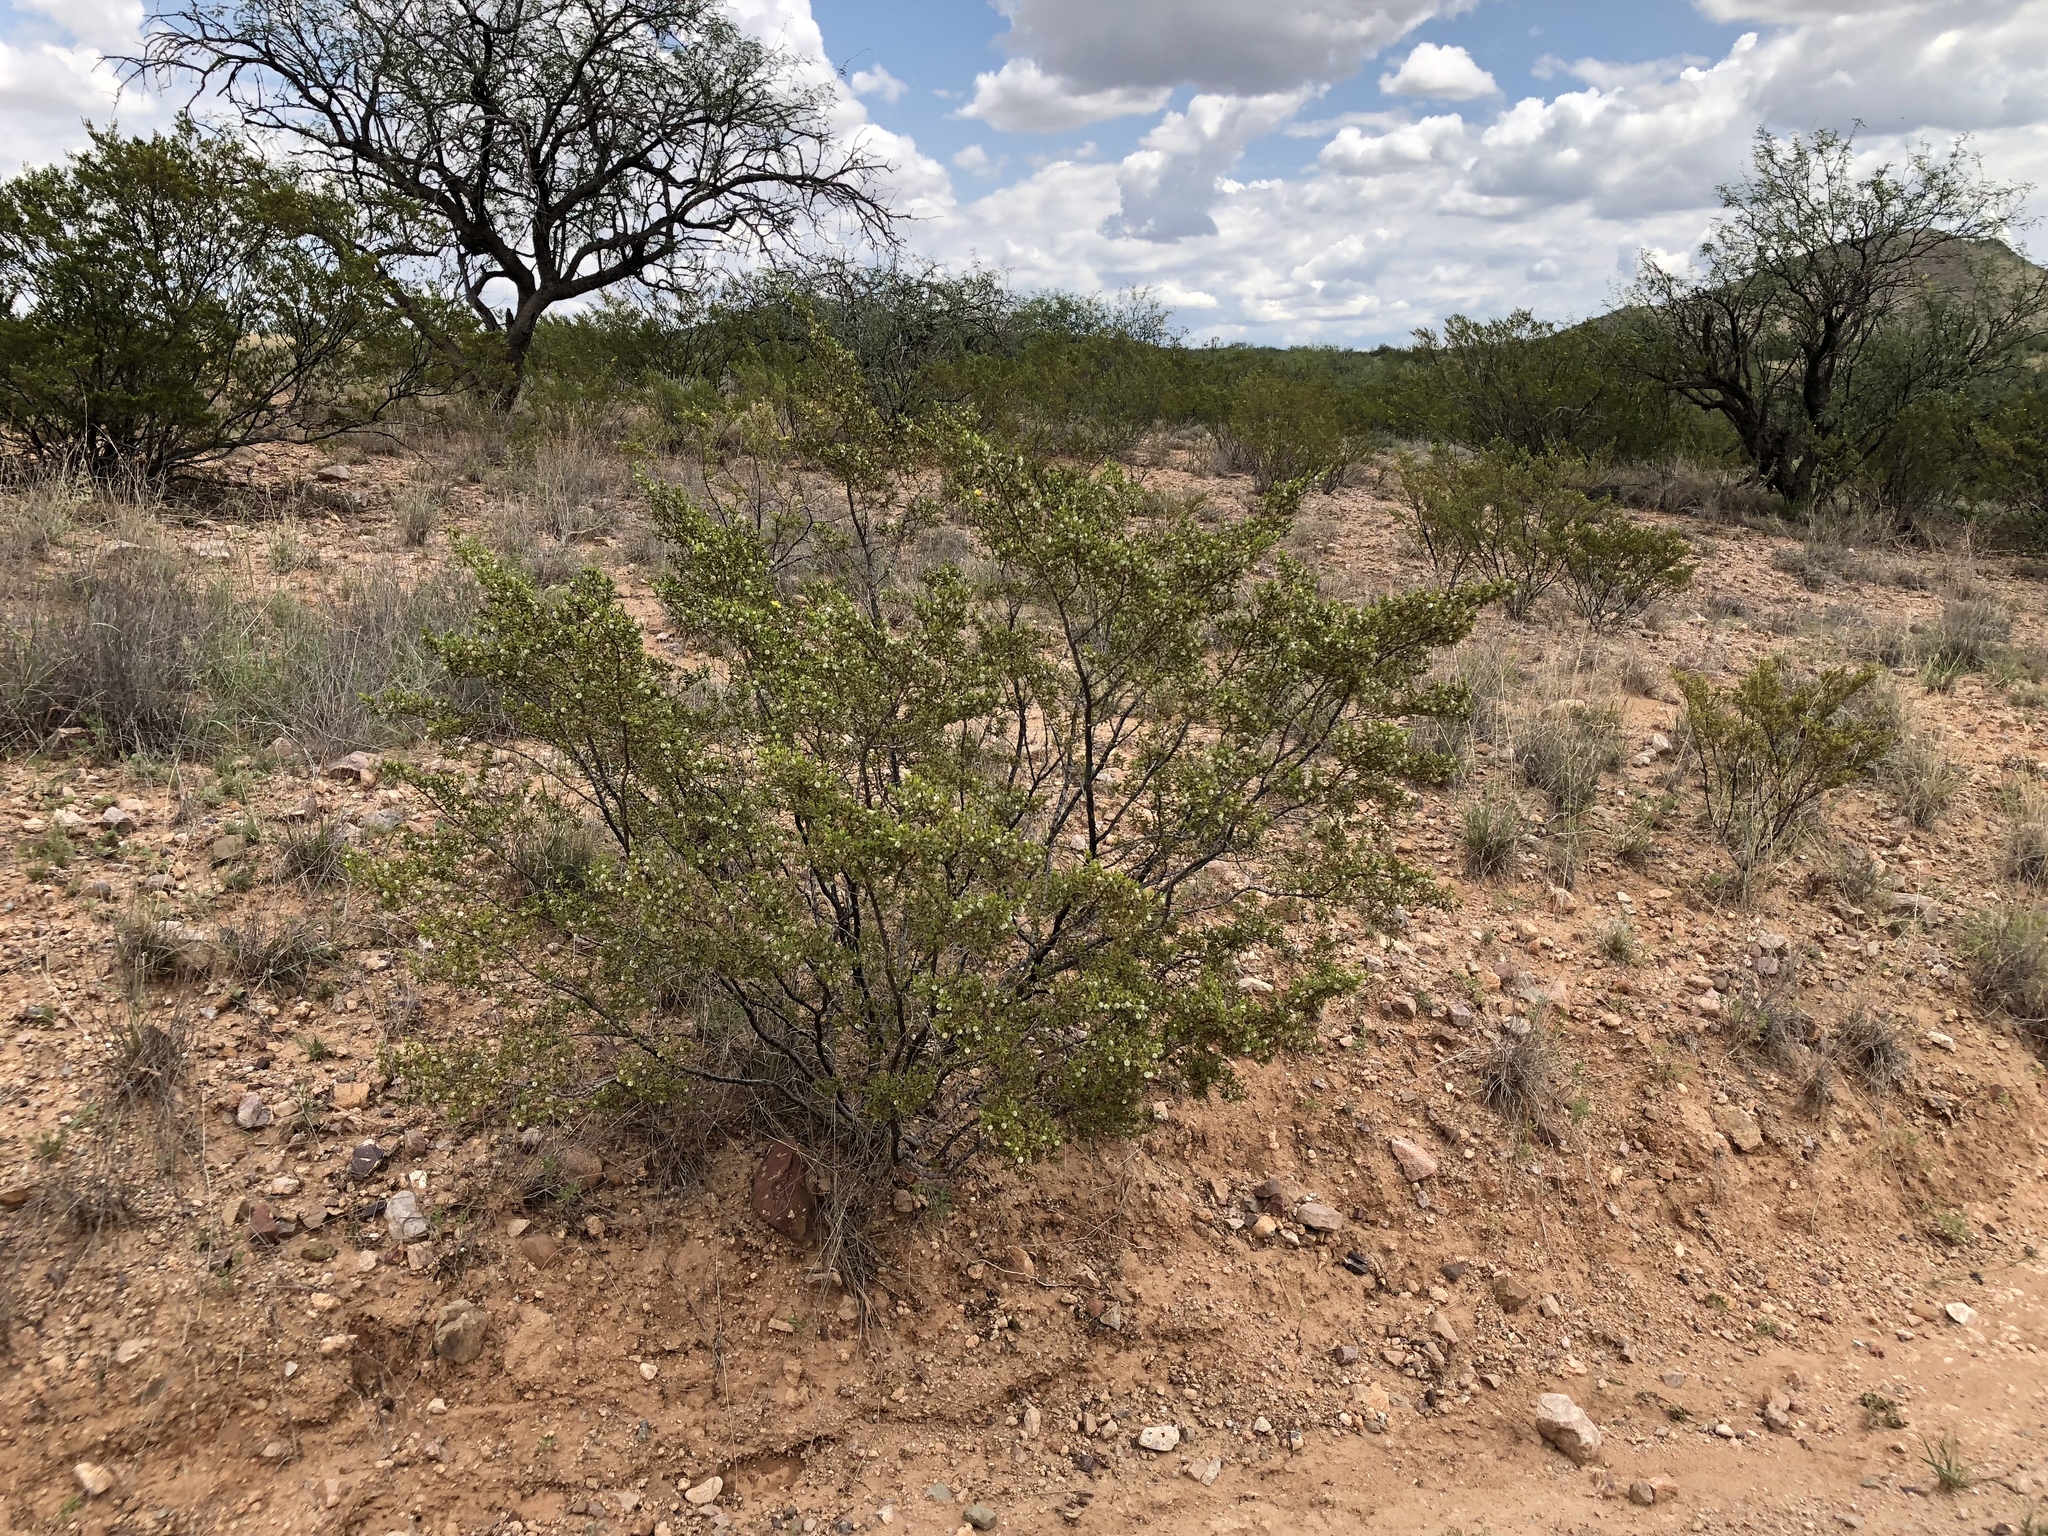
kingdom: Plantae
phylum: Tracheophyta
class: Magnoliopsida
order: Zygophyllales
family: Zygophyllaceae
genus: Larrea
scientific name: Larrea tridentata
